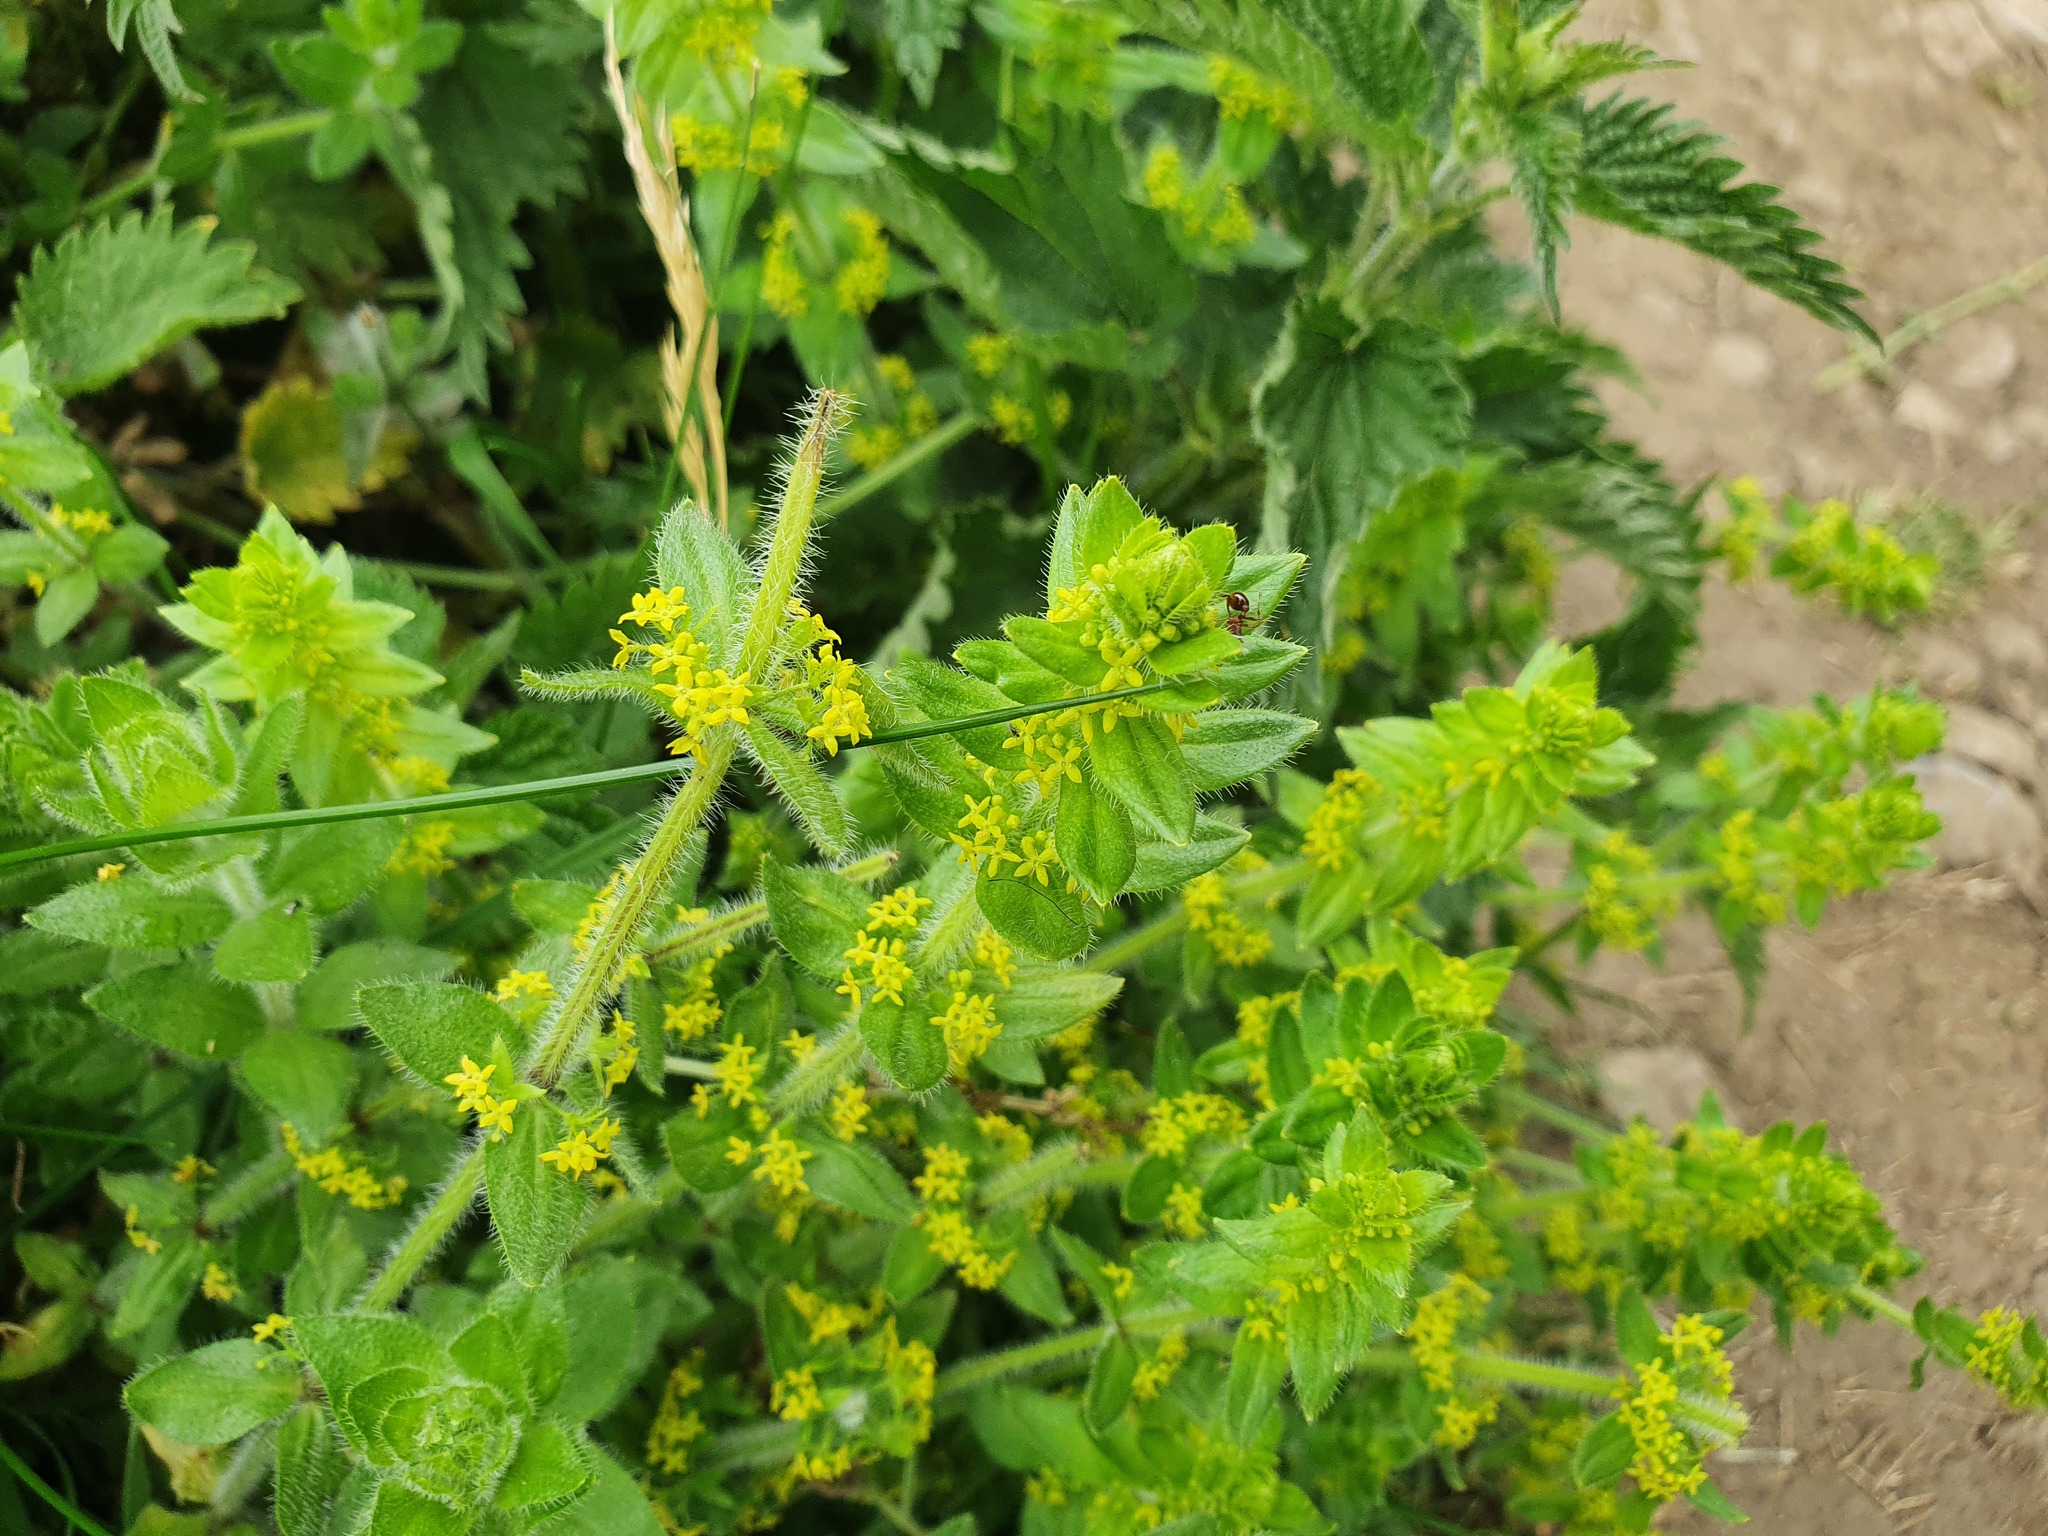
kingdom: Plantae
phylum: Tracheophyta
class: Magnoliopsida
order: Gentianales
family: Rubiaceae
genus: Cruciata
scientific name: Cruciata laevipes
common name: Crosswort
